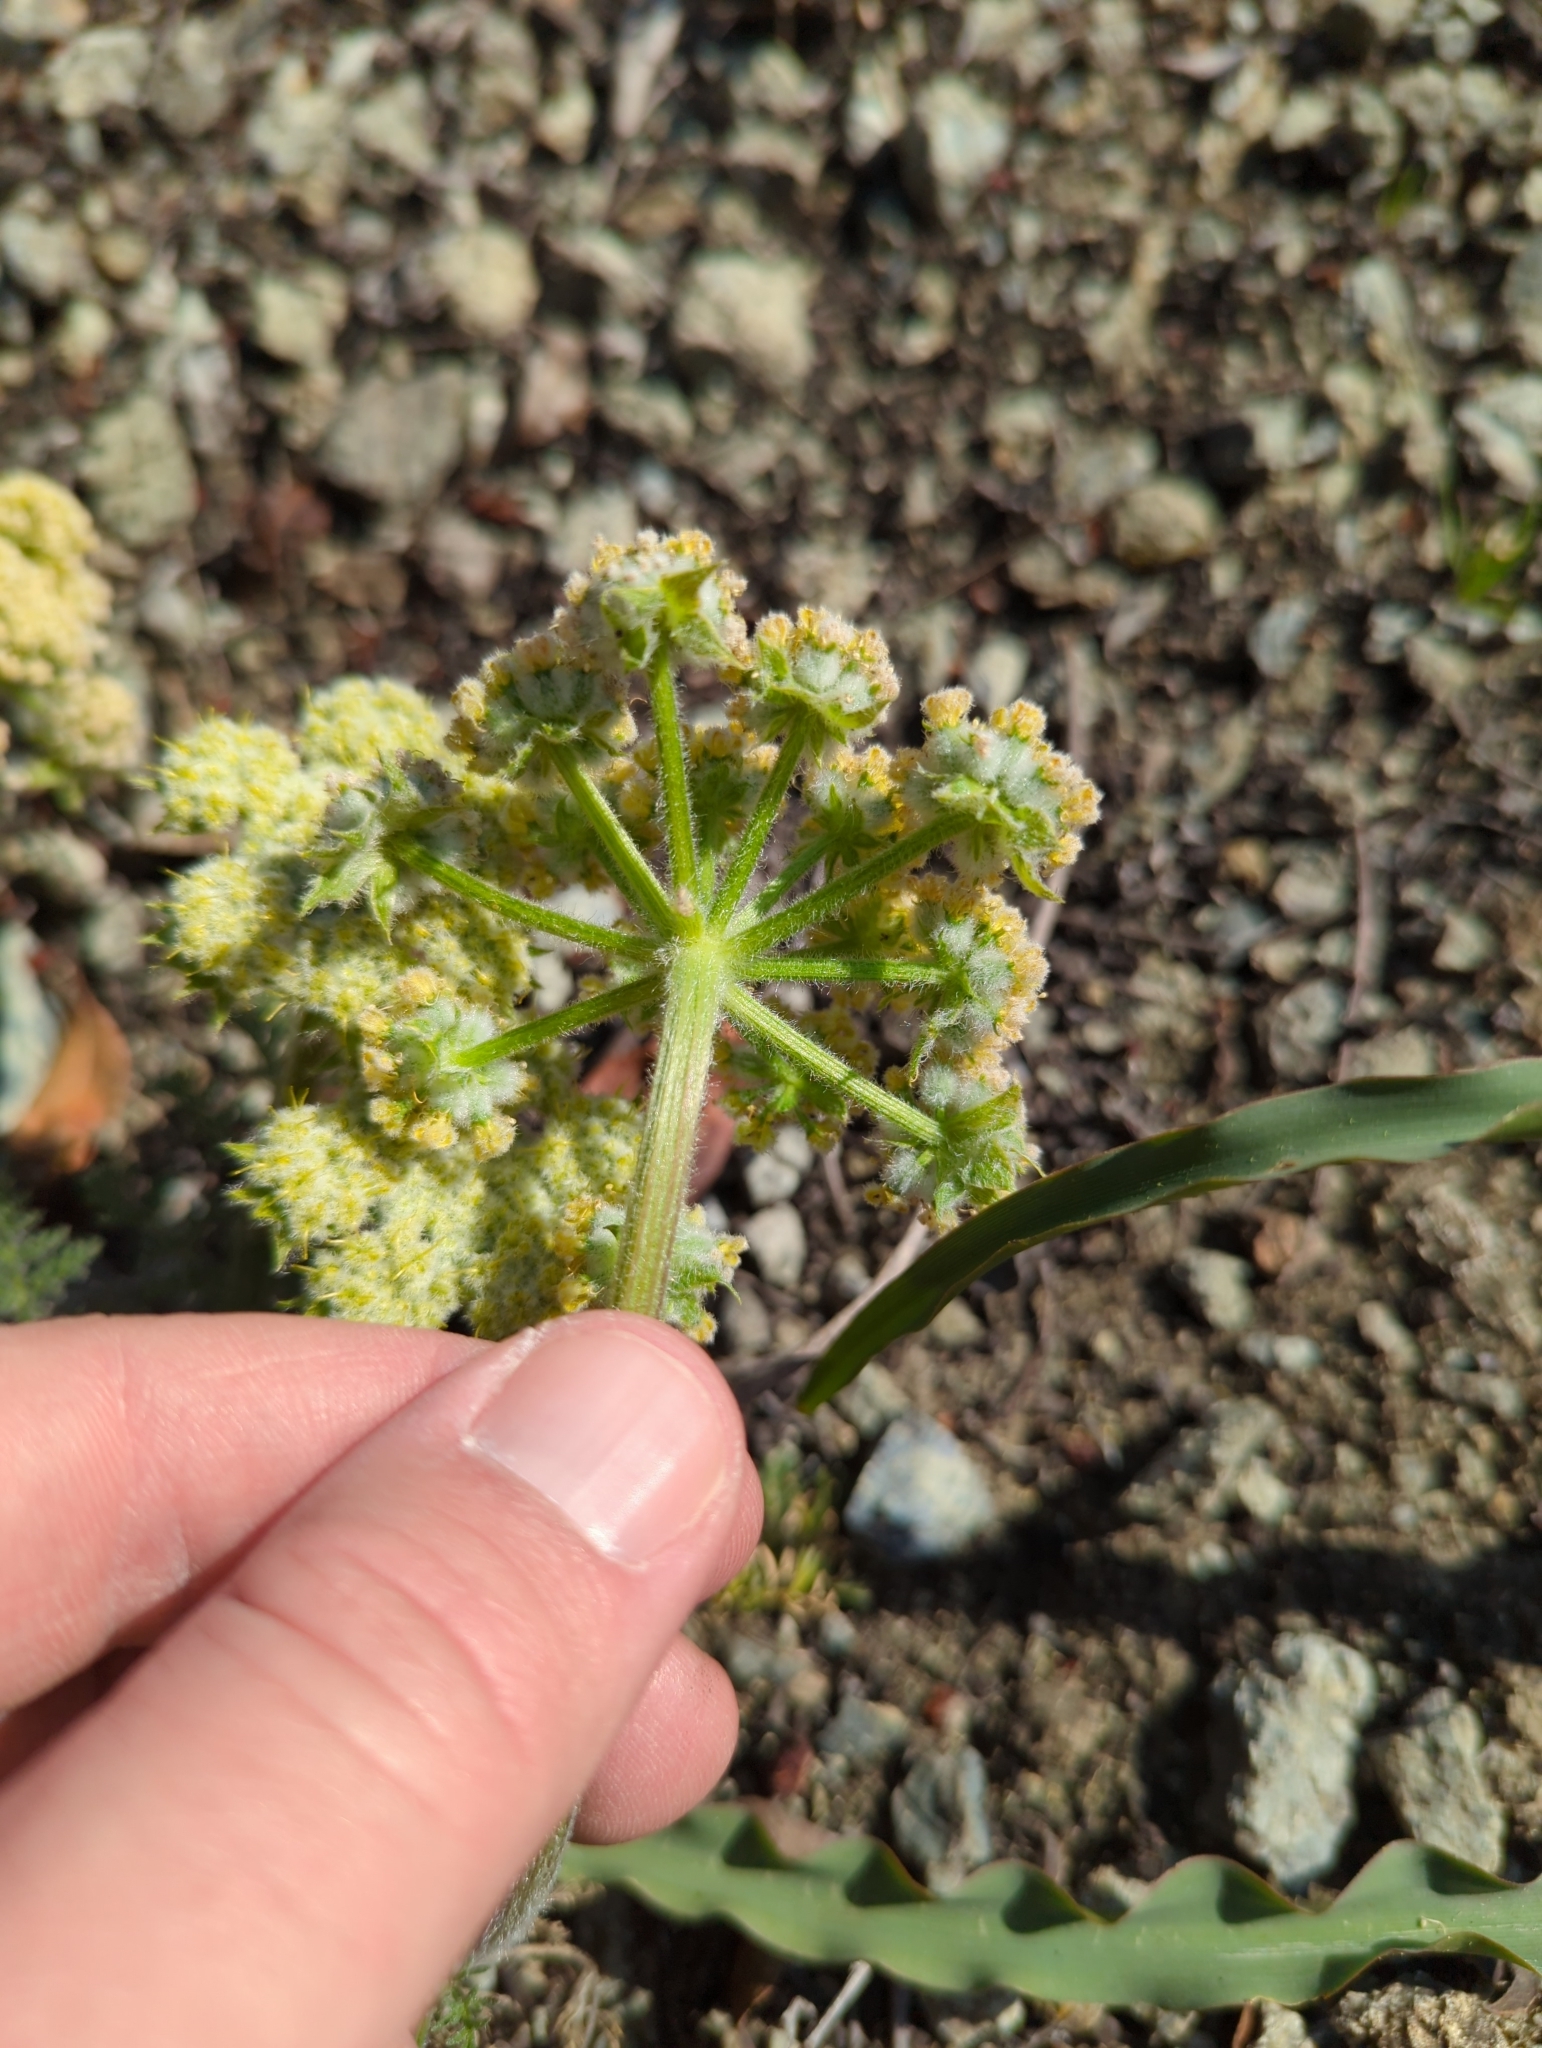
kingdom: Plantae
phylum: Tracheophyta
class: Magnoliopsida
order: Apiales
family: Apiaceae
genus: Lomatium
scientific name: Lomatium dasycarpum
